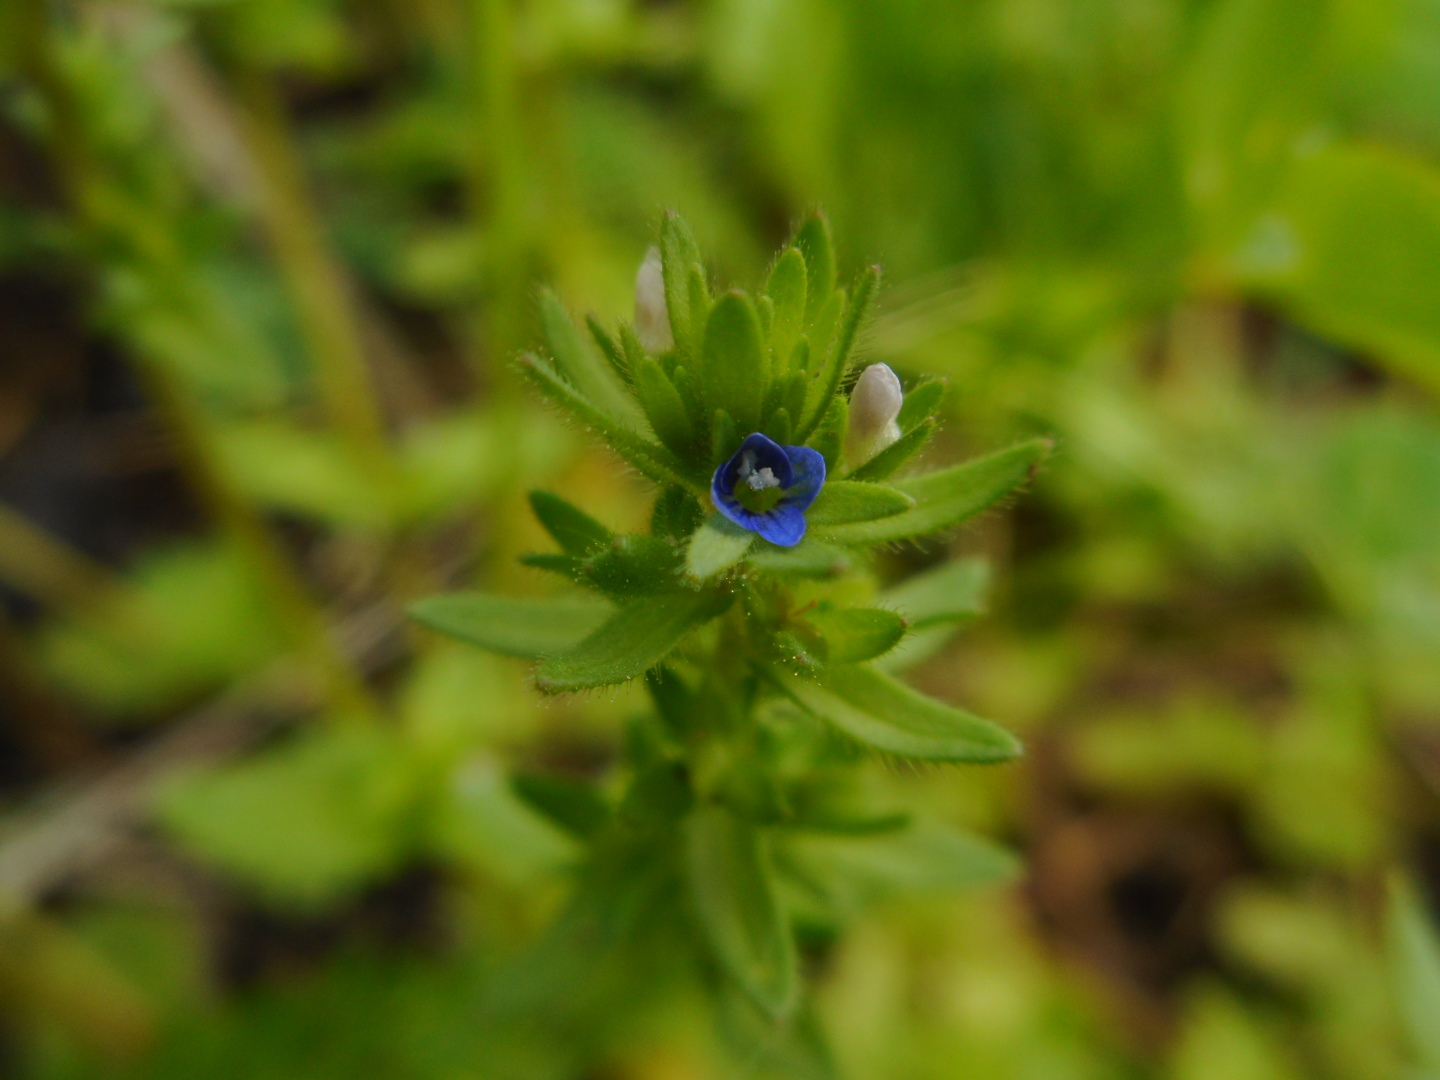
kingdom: Plantae
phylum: Tracheophyta
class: Magnoliopsida
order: Lamiales
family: Plantaginaceae
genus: Veronica
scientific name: Veronica arvensis
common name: Corn speedwell
